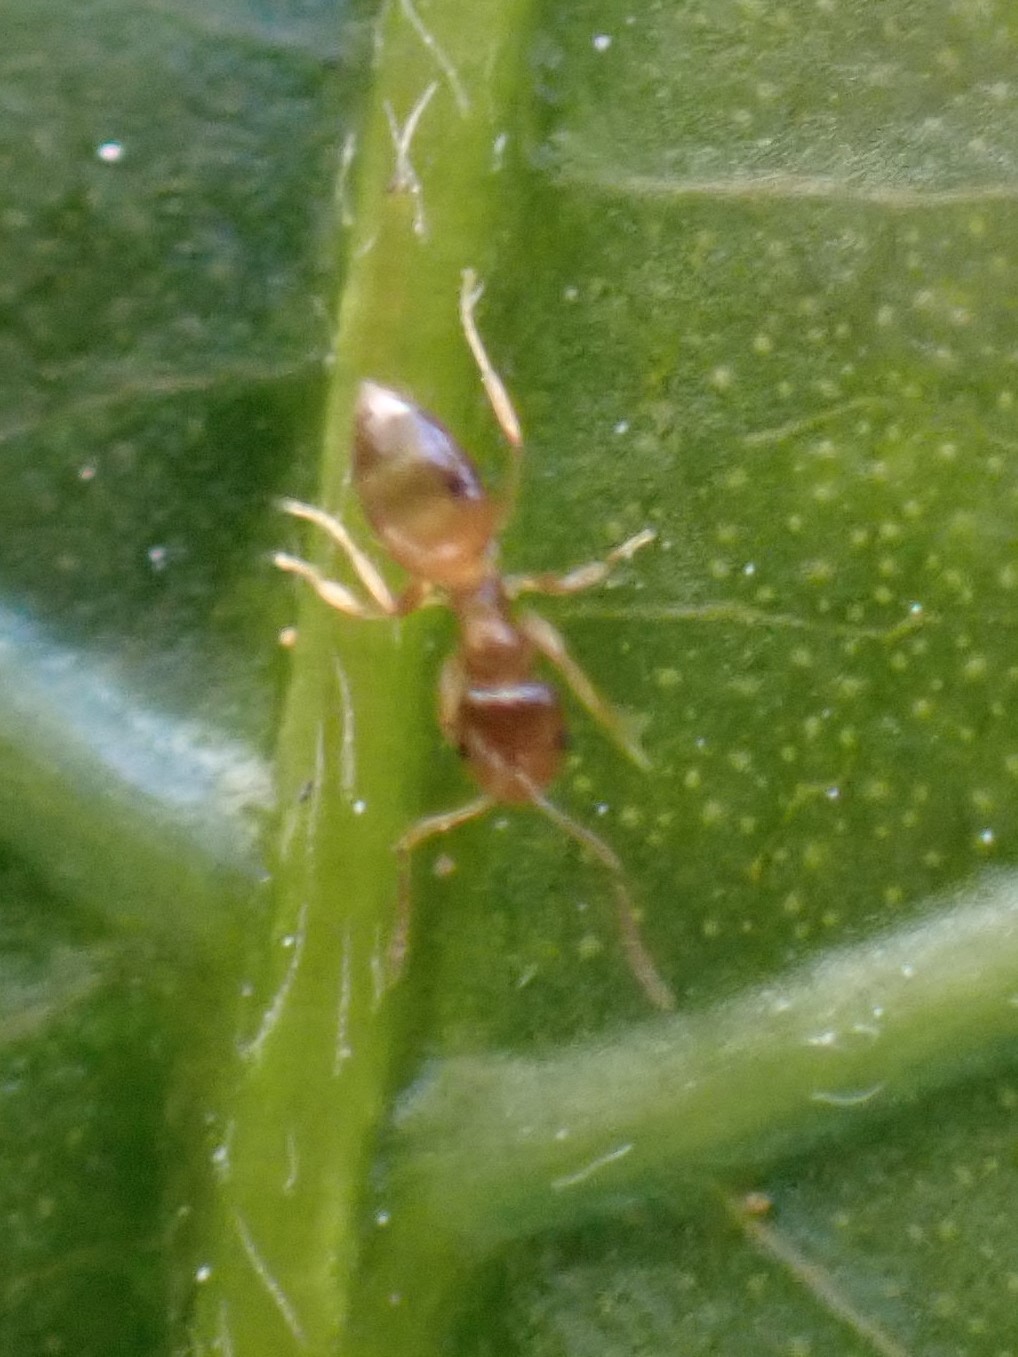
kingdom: Animalia
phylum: Arthropoda
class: Insecta
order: Hymenoptera
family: Formicidae
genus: Brachymyrmex
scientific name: Brachymyrmex
